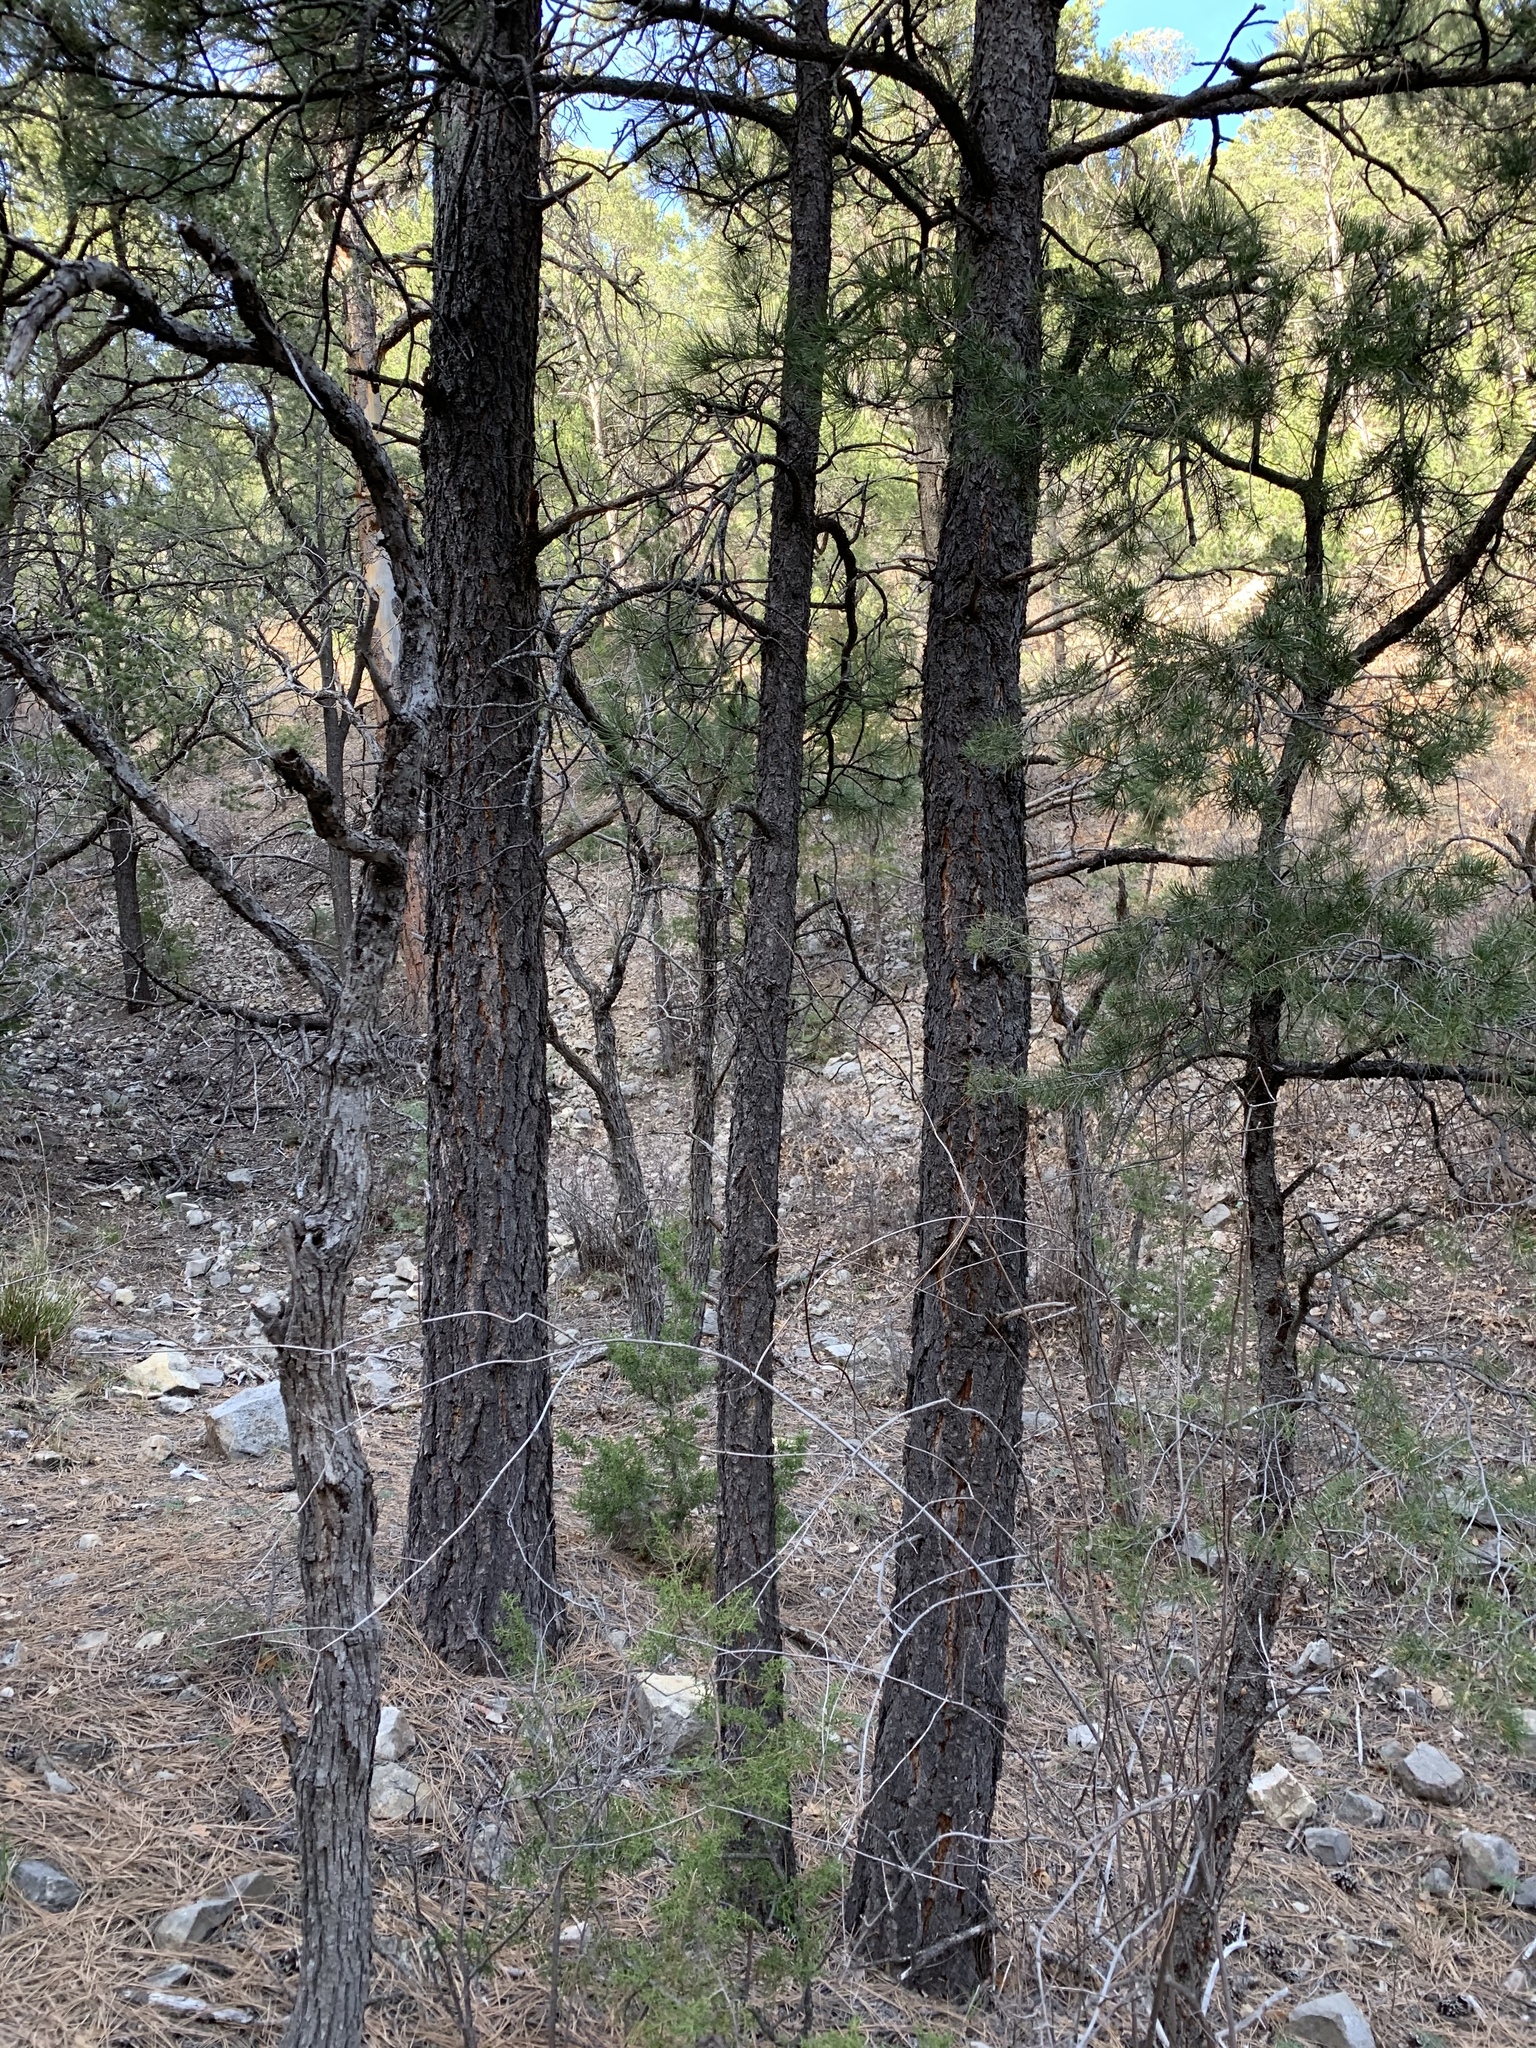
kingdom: Plantae
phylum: Tracheophyta
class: Pinopsida
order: Pinales
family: Pinaceae
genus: Pinus
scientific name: Pinus ponderosa
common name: Western yellow-pine
